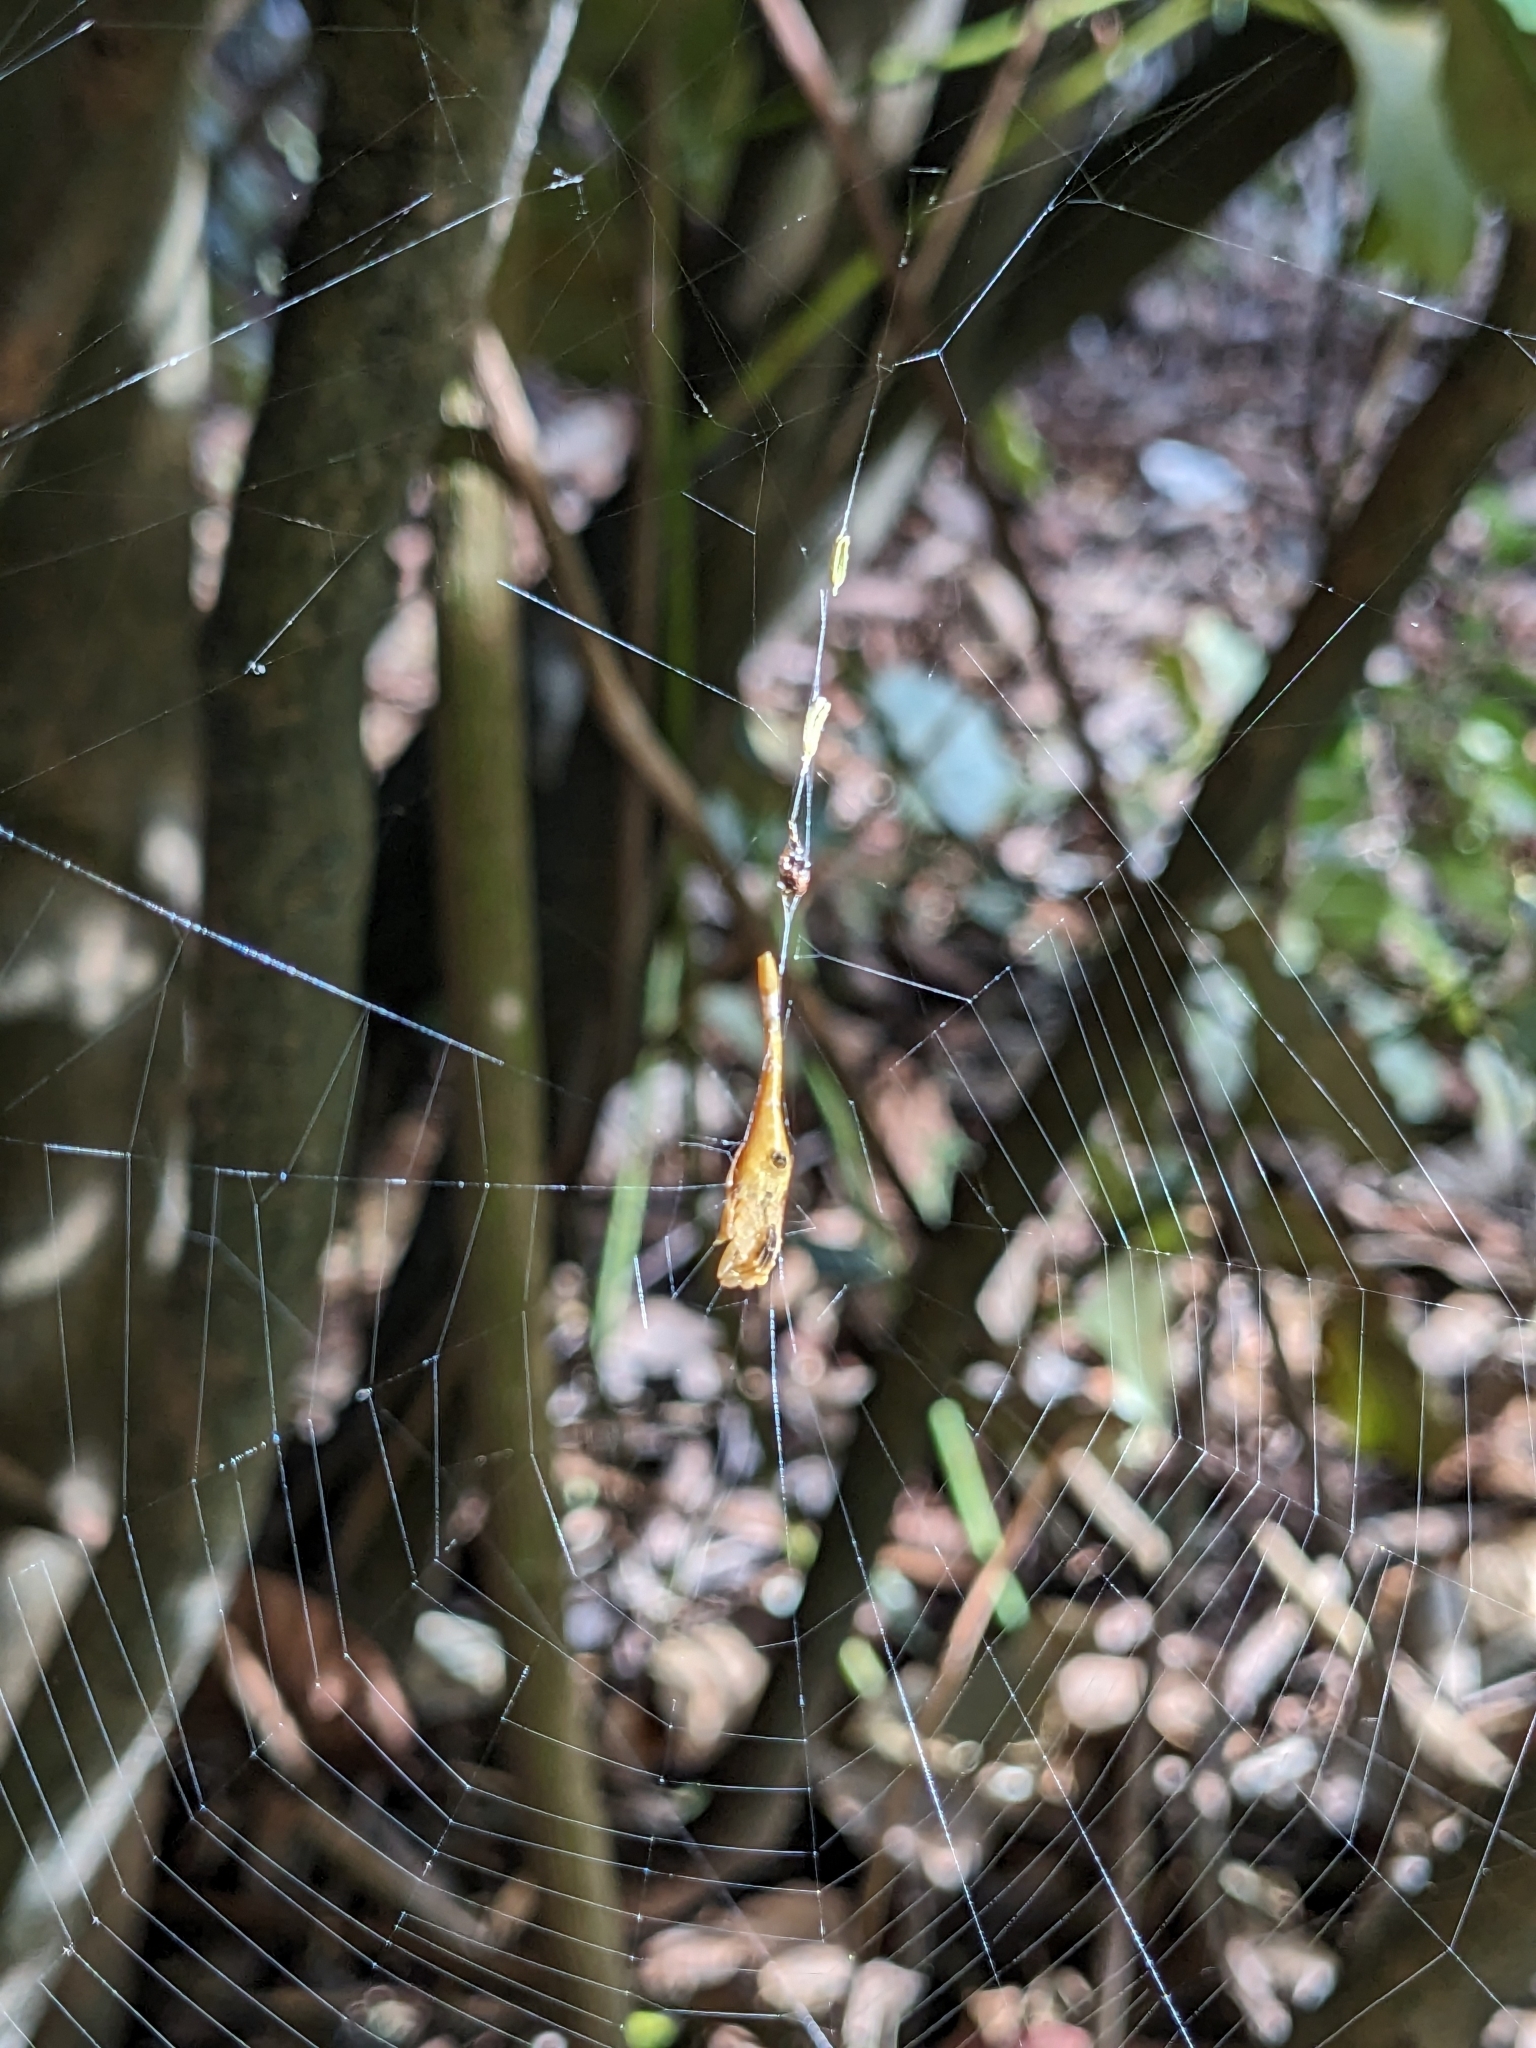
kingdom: Animalia
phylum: Arthropoda
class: Arachnida
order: Araneae
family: Araneidae
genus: Arachnura
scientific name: Arachnura feredayi
